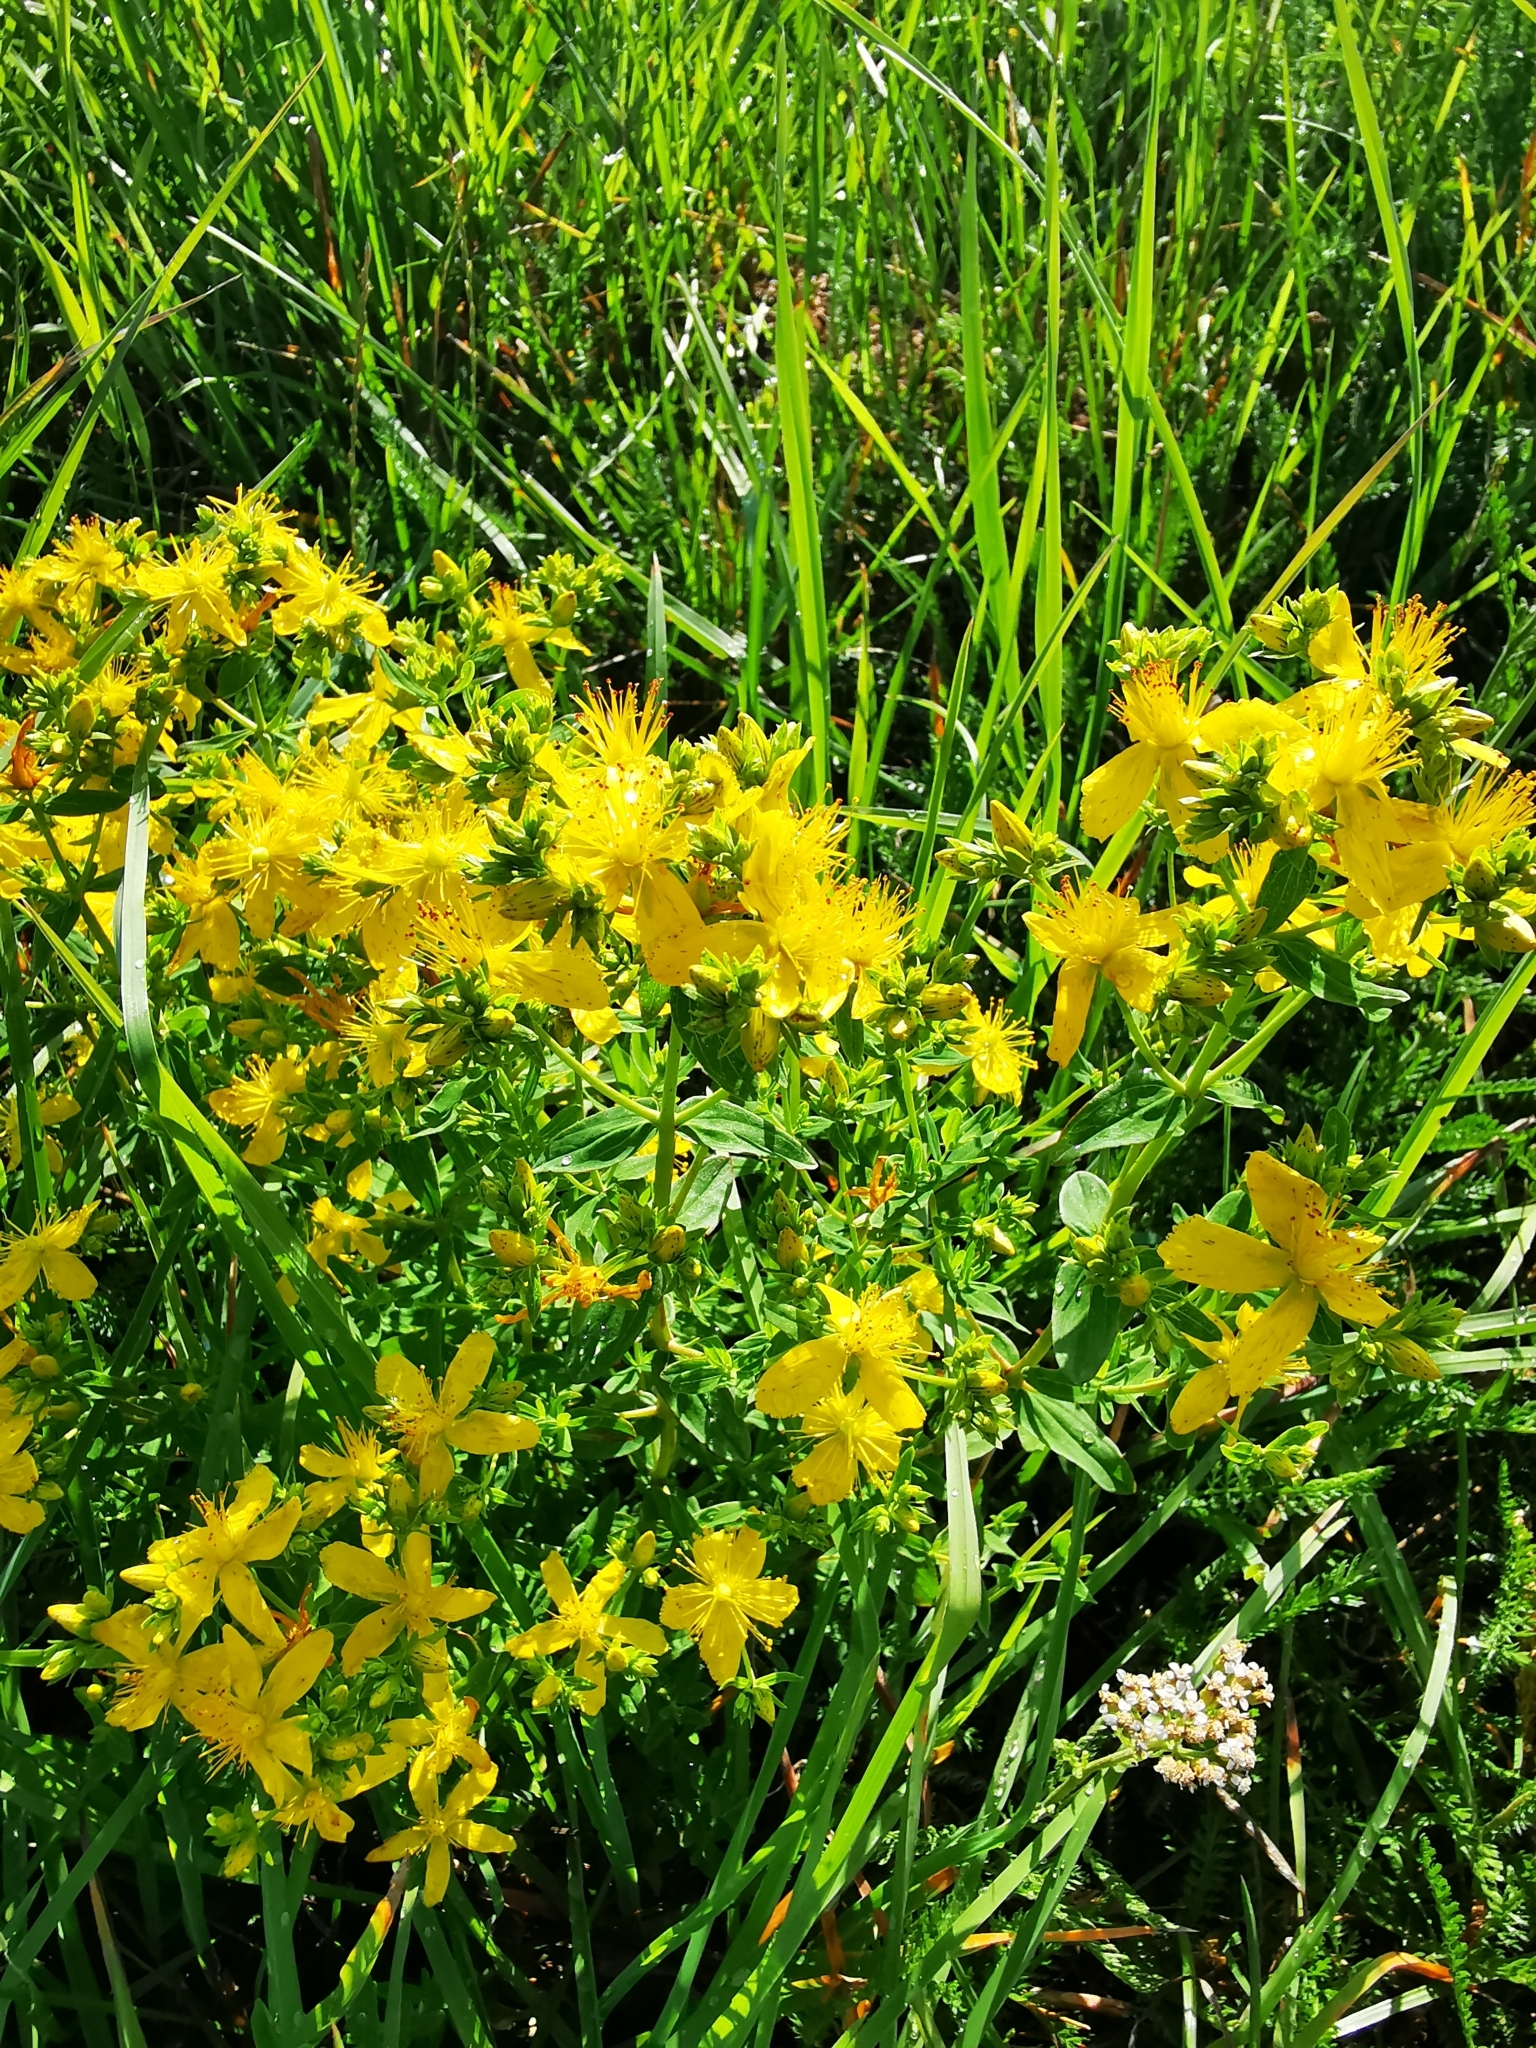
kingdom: Plantae
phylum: Tracheophyta
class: Magnoliopsida
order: Malpighiales
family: Hypericaceae
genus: Hypericum
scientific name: Hypericum perforatum
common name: Common st. johnswort
